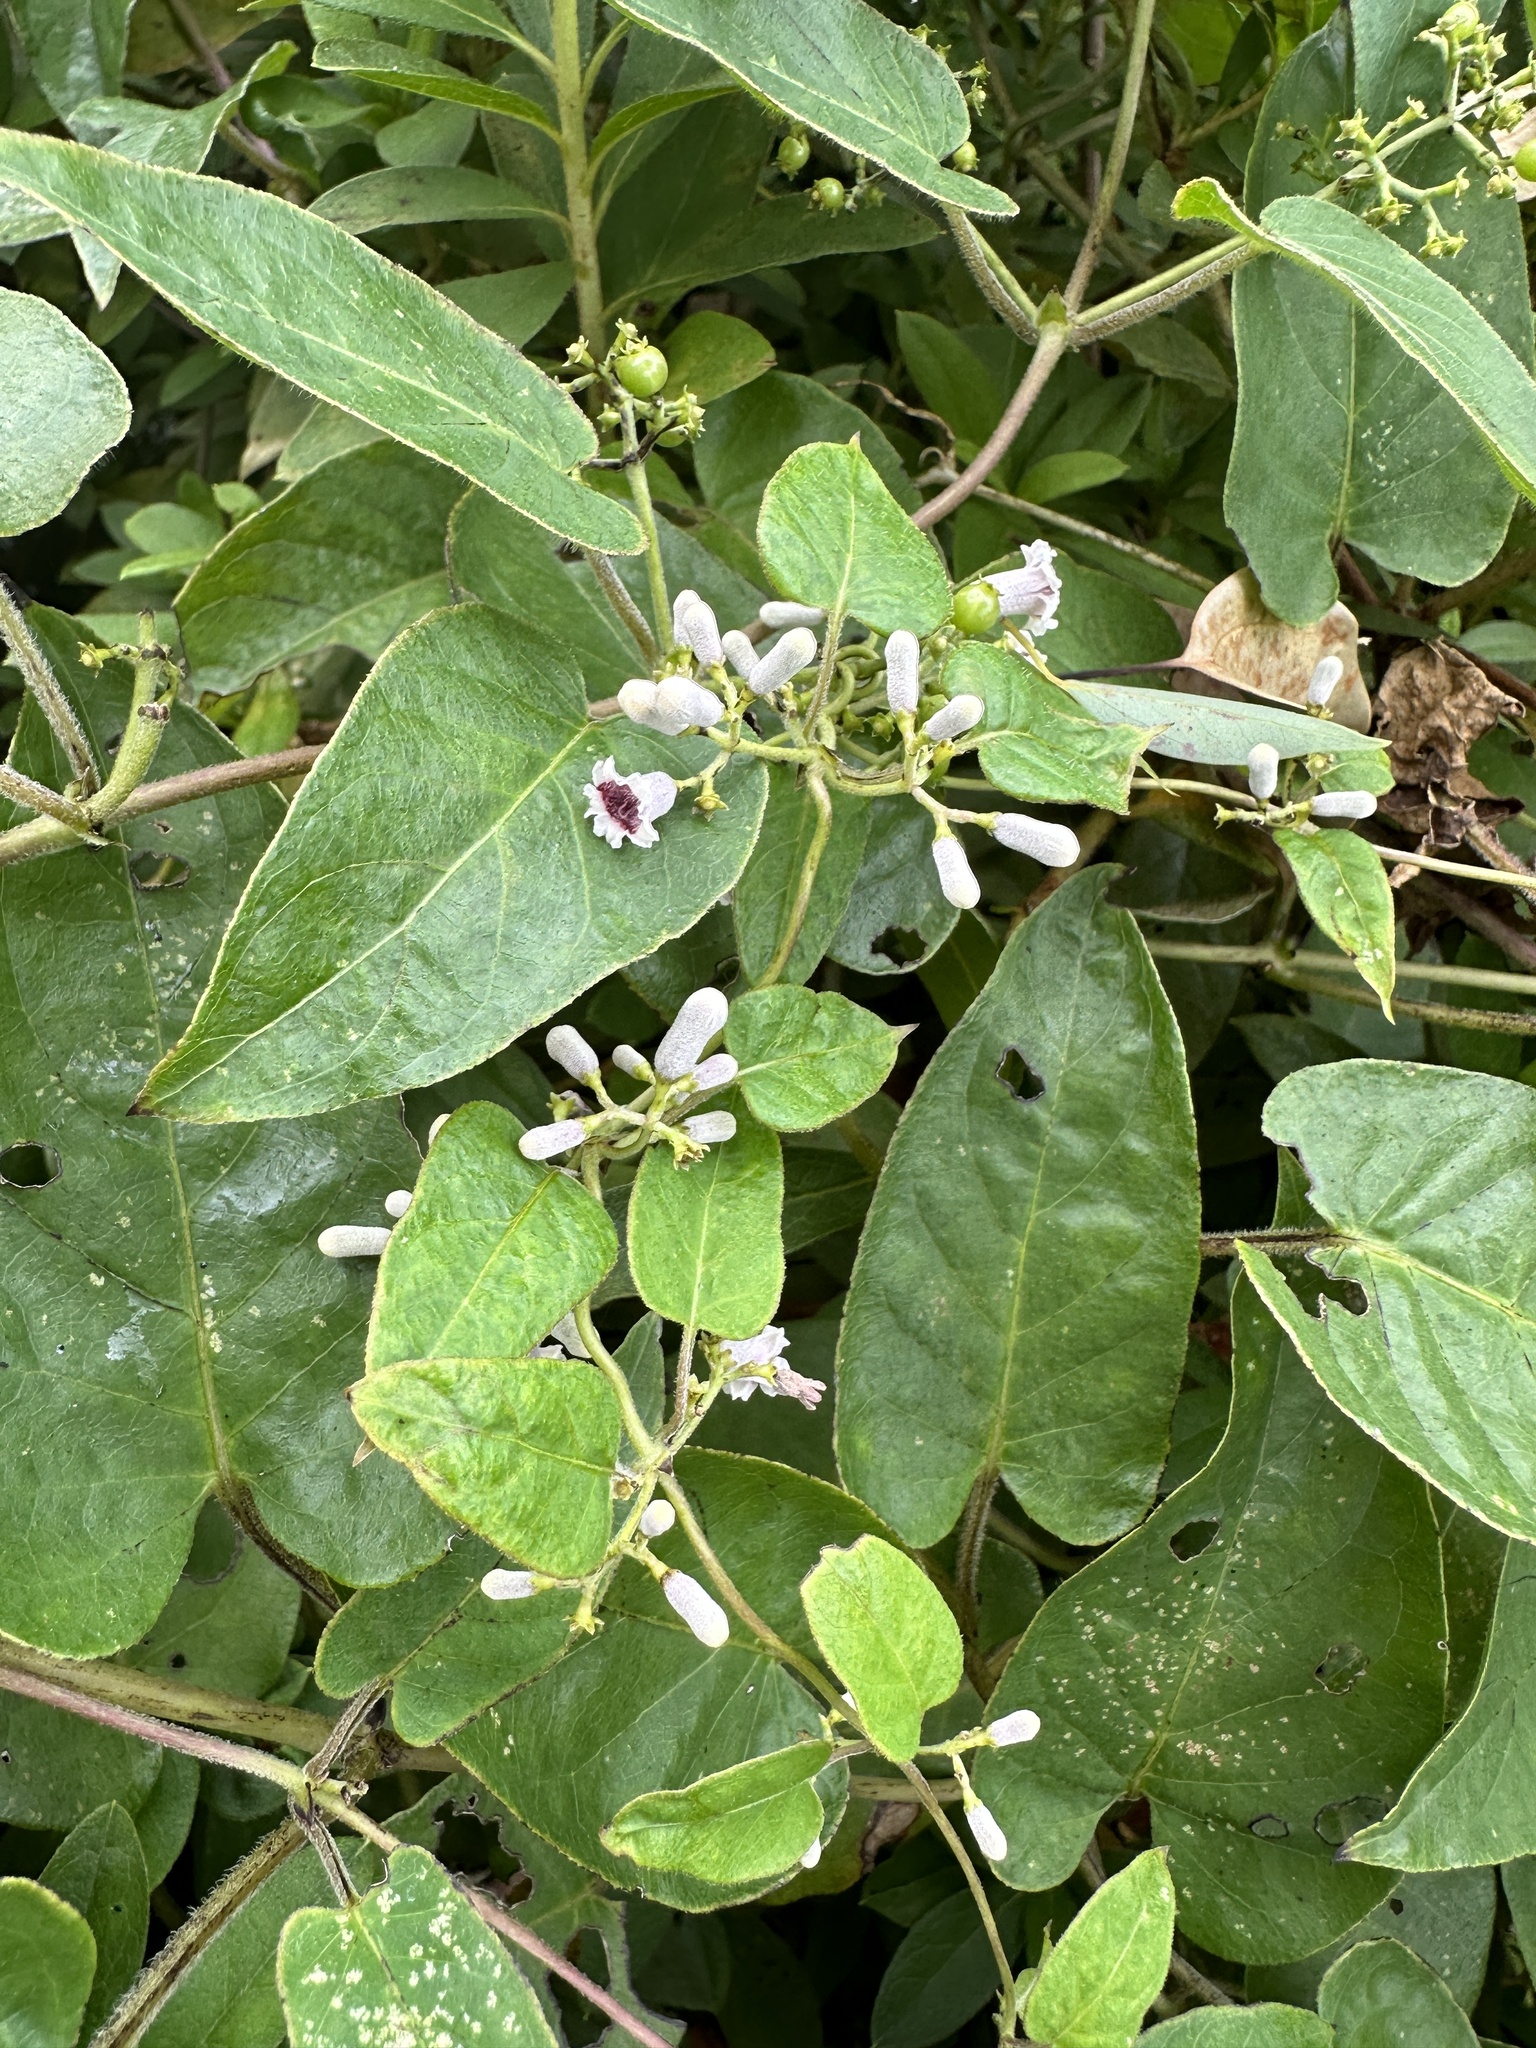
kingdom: Plantae
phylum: Tracheophyta
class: Magnoliopsida
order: Gentianales
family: Rubiaceae
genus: Paederia
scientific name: Paederia foetida
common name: Stinkvine
